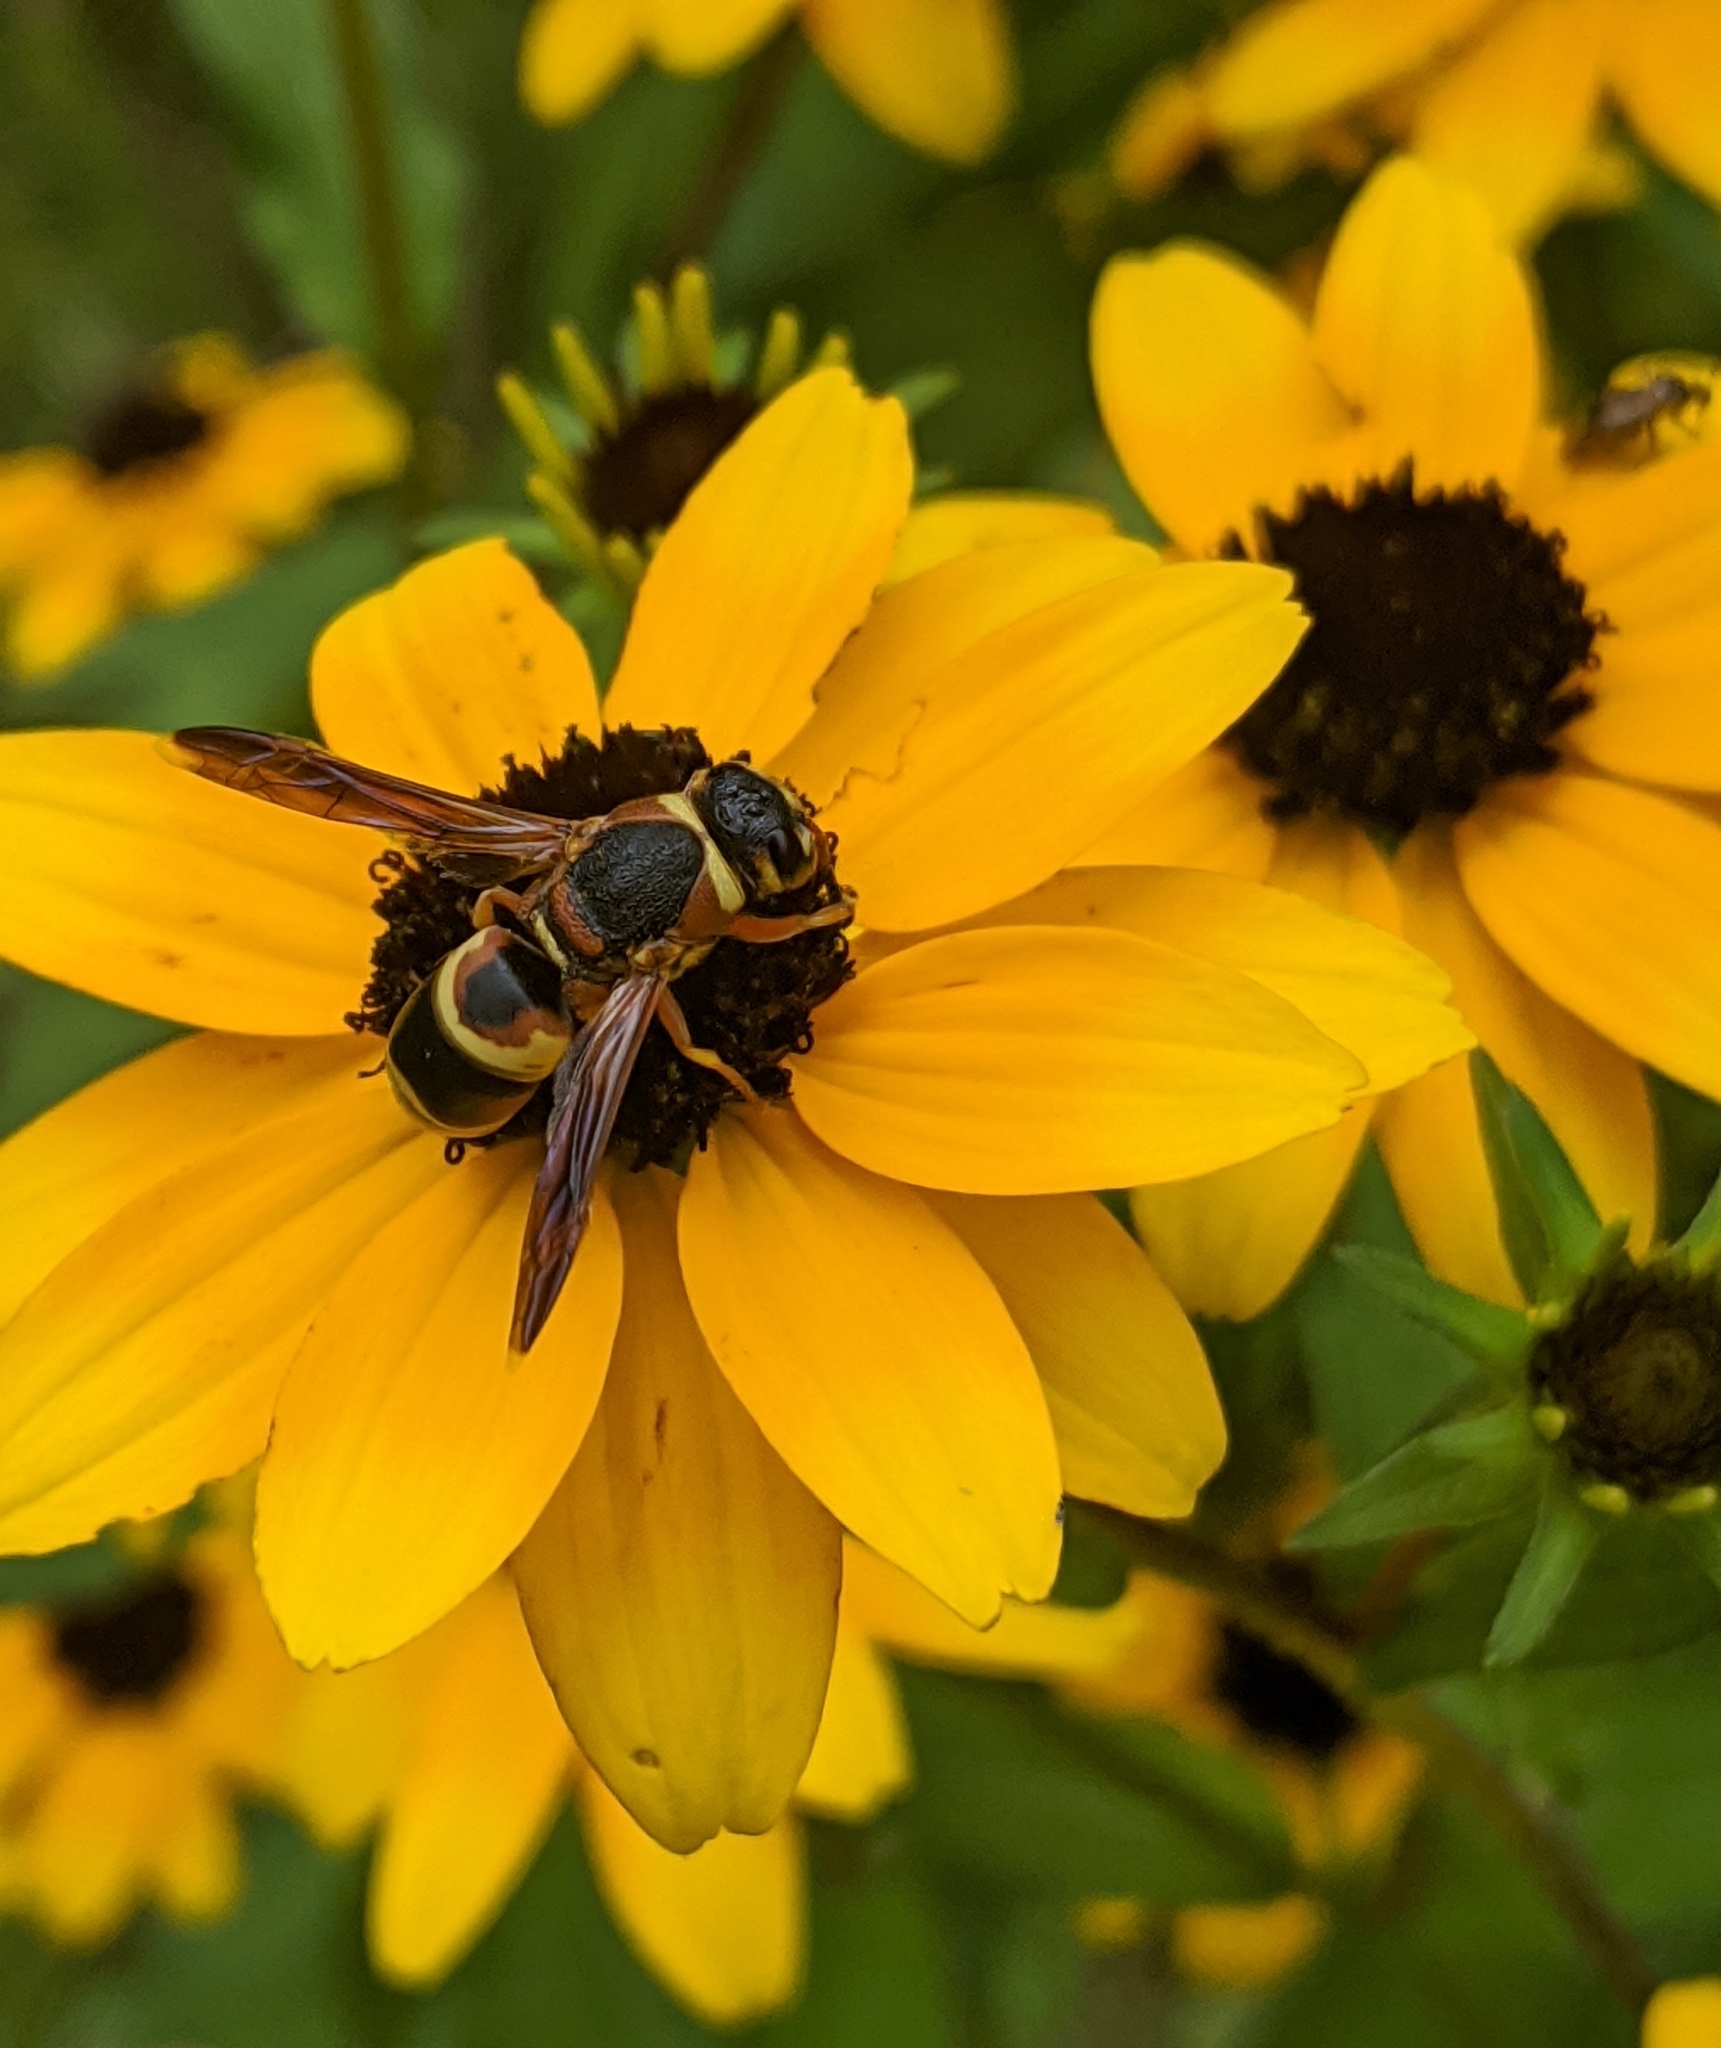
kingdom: Animalia
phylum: Arthropoda
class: Insecta
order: Hymenoptera
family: Eumenidae
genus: Euodynerus
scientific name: Euodynerus hidalgo
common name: Wasp
